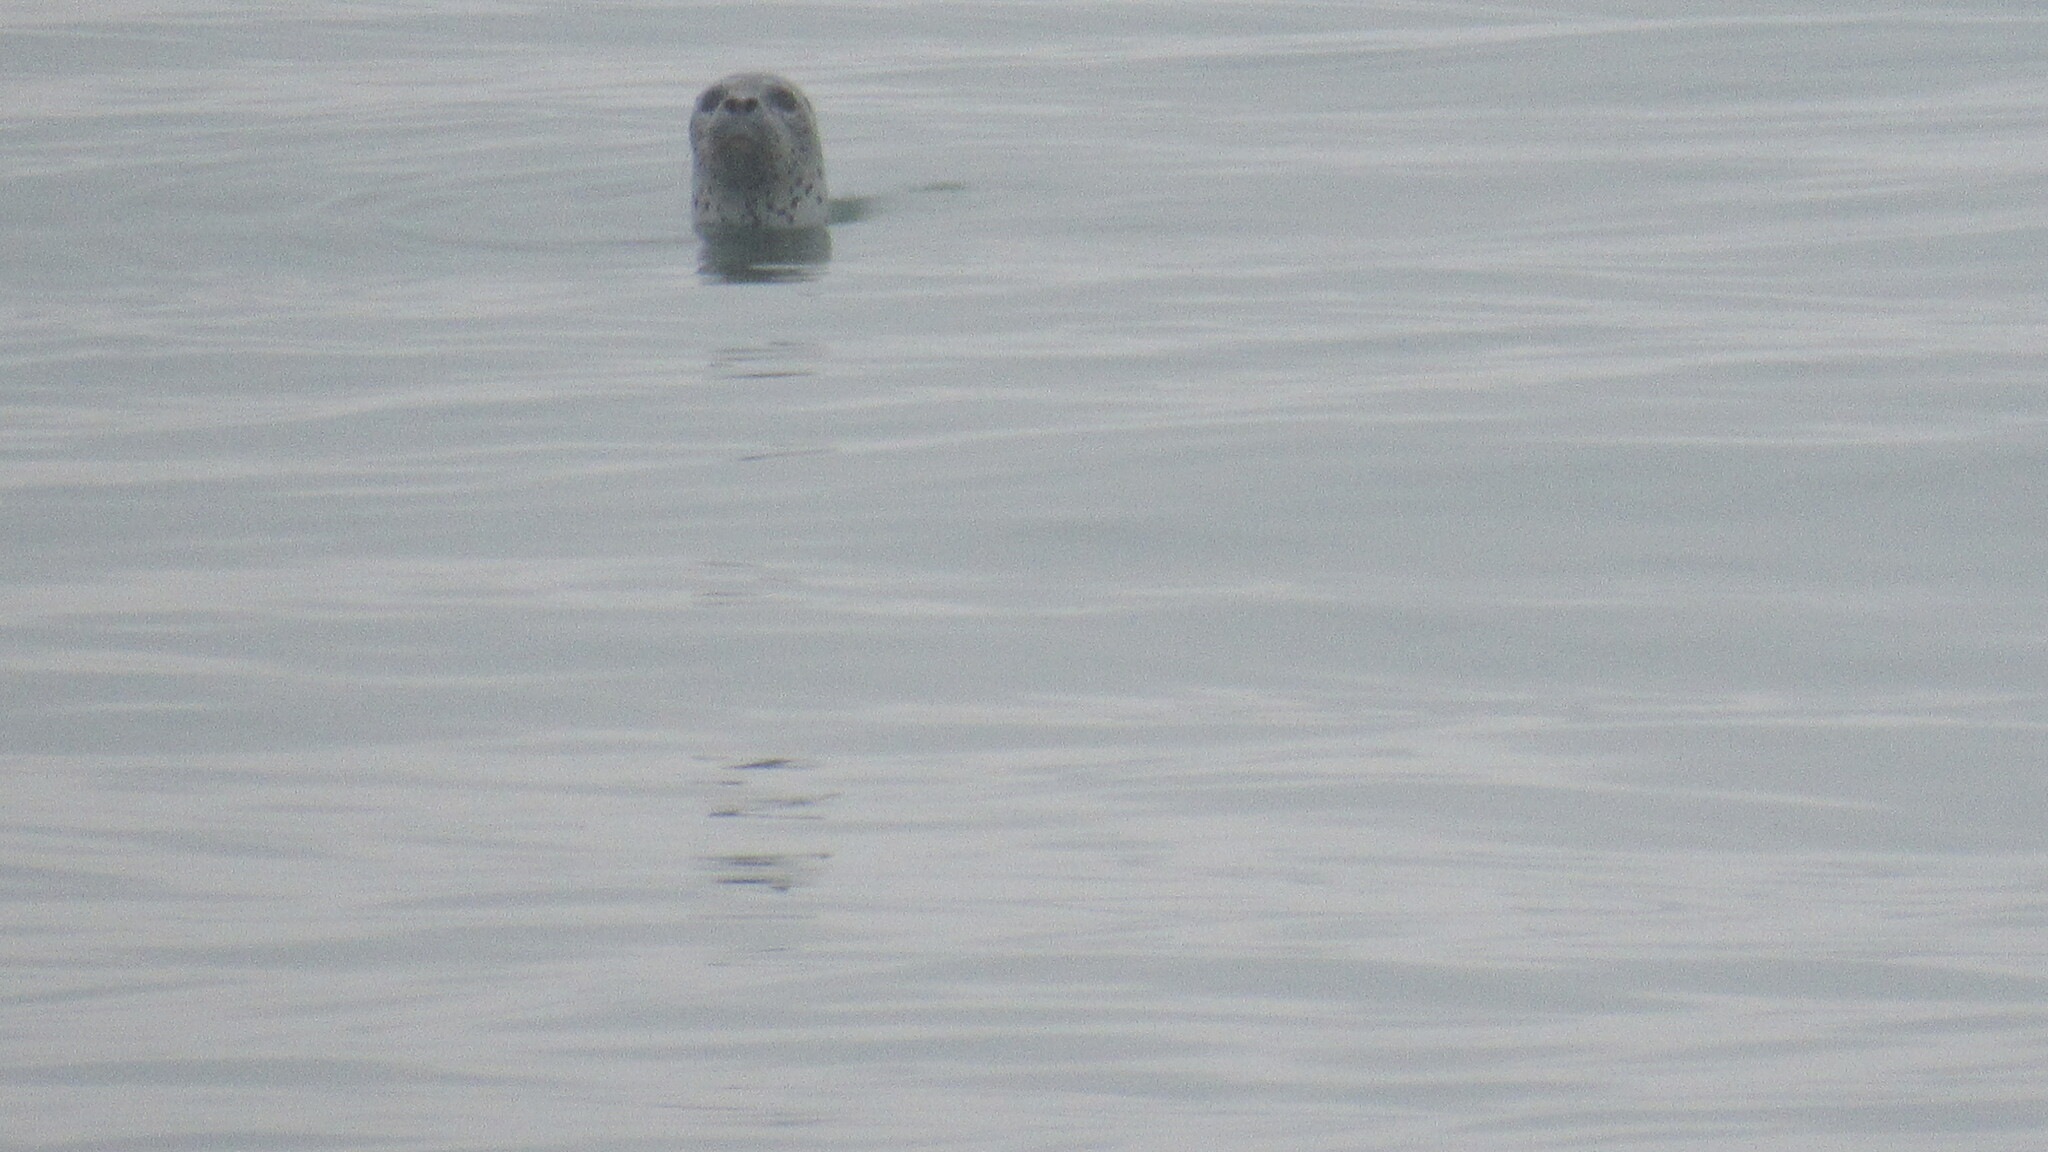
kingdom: Animalia
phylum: Chordata
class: Mammalia
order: Carnivora
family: Phocidae
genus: Phoca
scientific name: Phoca vitulina
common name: Harbor seal
